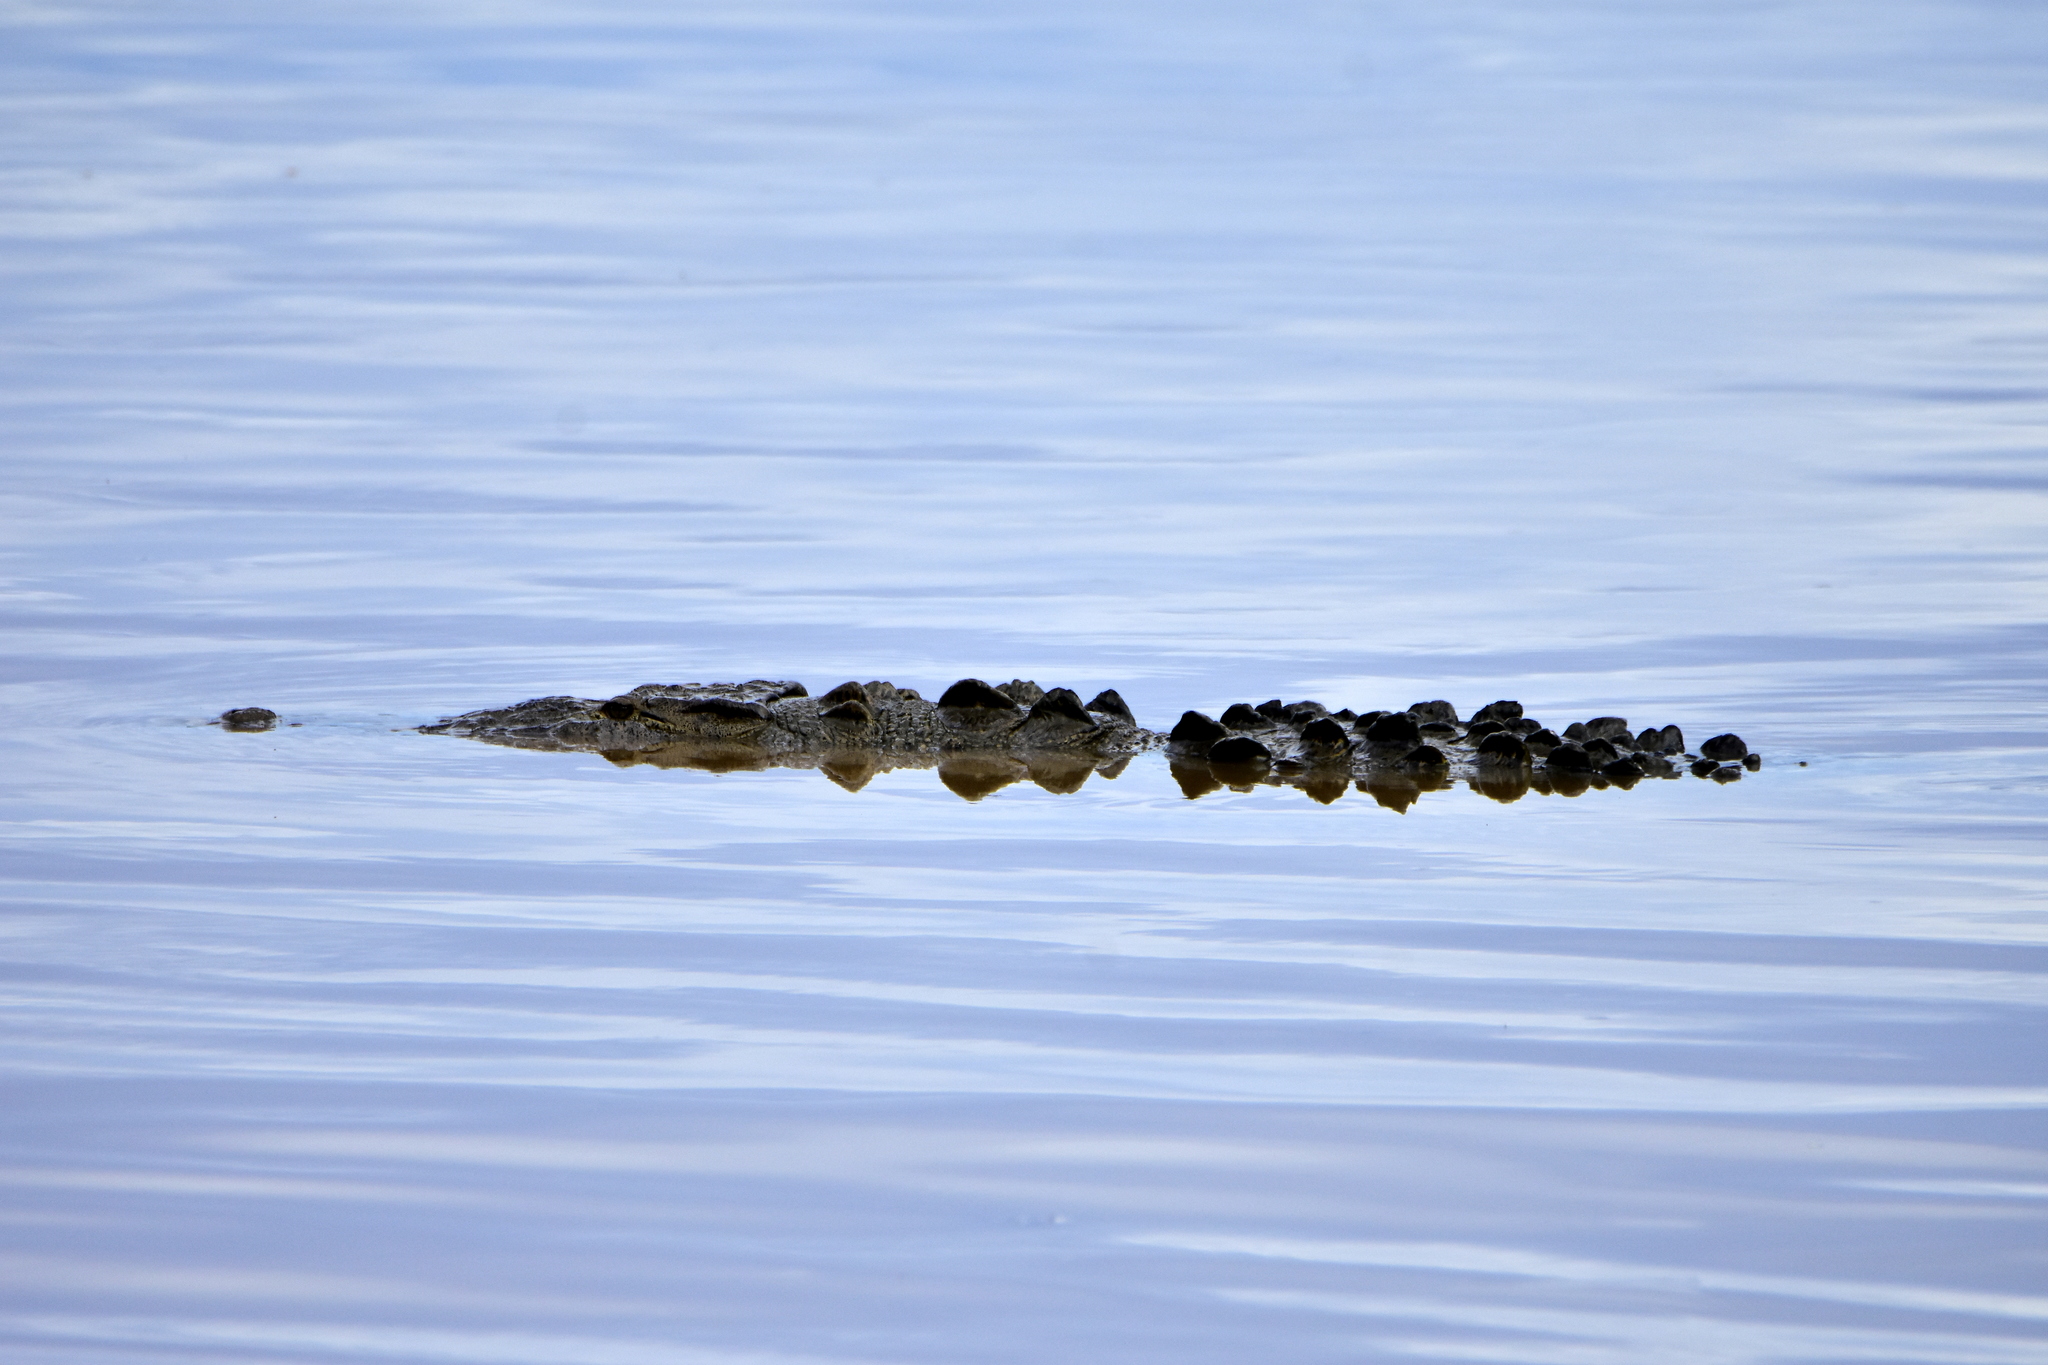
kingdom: Animalia
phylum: Chordata
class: Crocodylia
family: Crocodylidae
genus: Crocodylus
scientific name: Crocodylus acutus
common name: American crocodile
